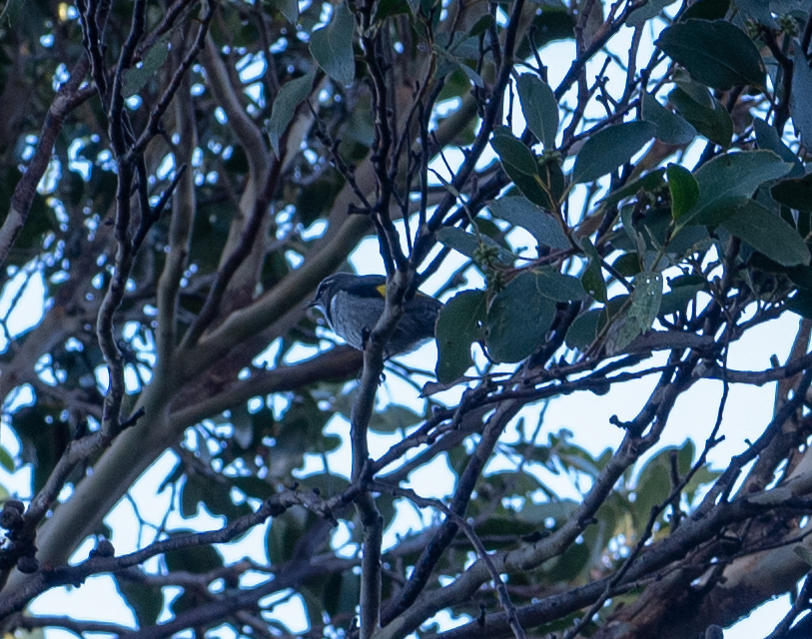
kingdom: Animalia
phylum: Chordata
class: Aves
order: Passeriformes
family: Meliphagidae
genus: Phylidonyris
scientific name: Phylidonyris pyrrhopterus
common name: Crescent honeyeater
